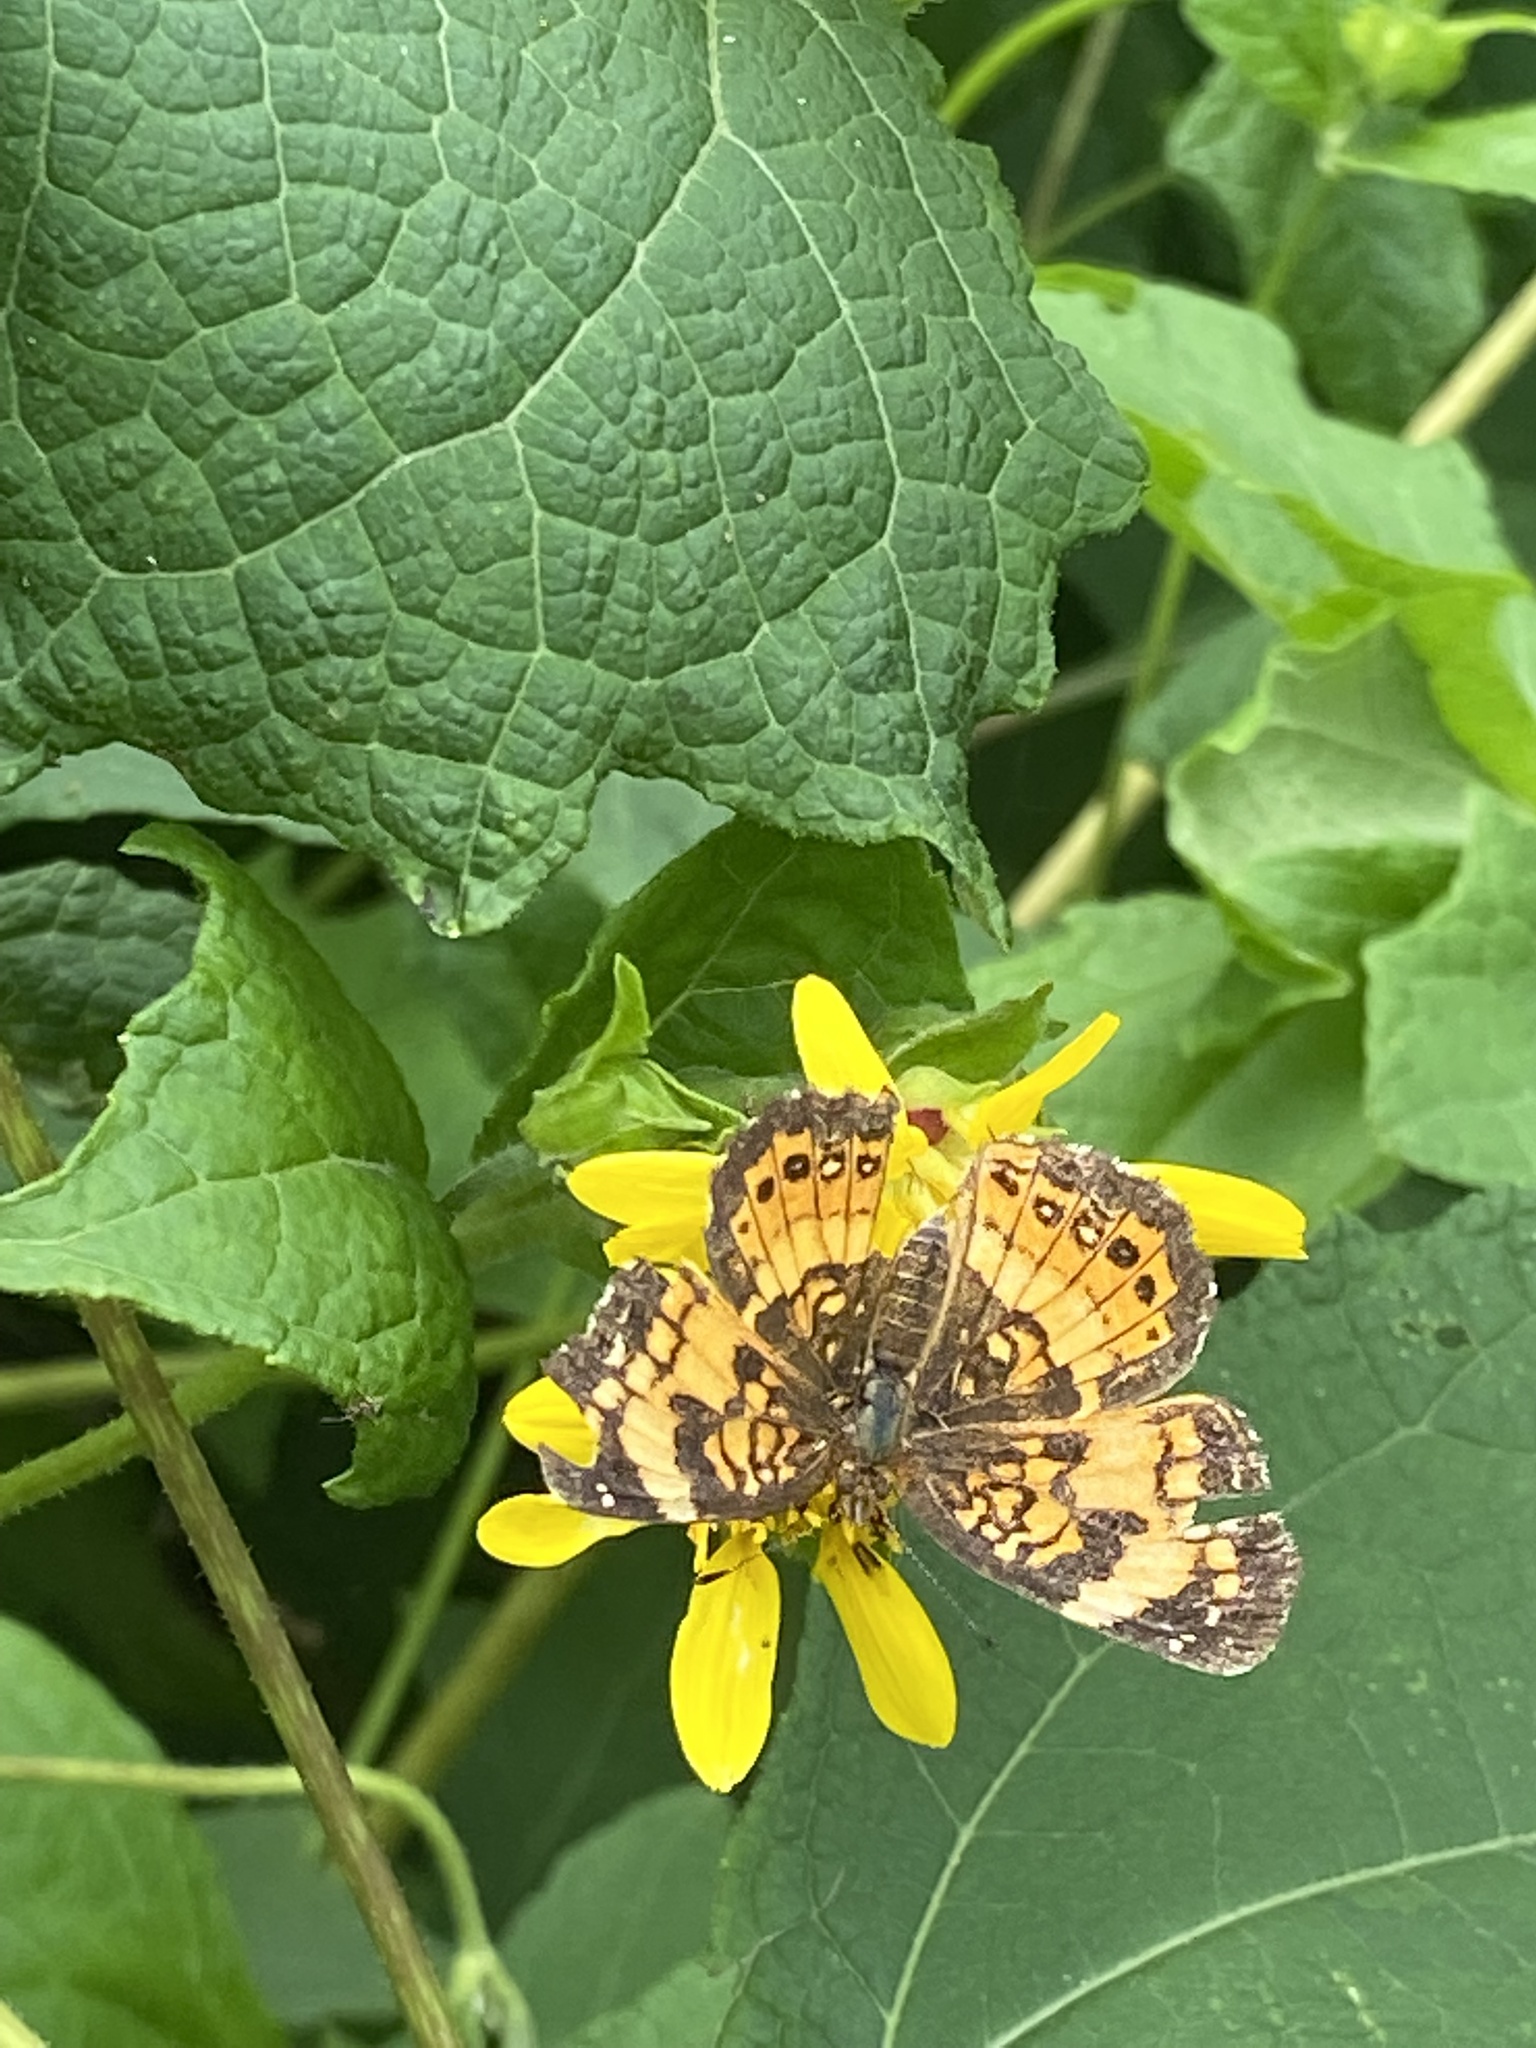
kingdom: Animalia
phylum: Arthropoda
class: Insecta
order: Lepidoptera
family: Nymphalidae
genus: Chlosyne
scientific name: Chlosyne nycteis
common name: Silvery checkerspot
